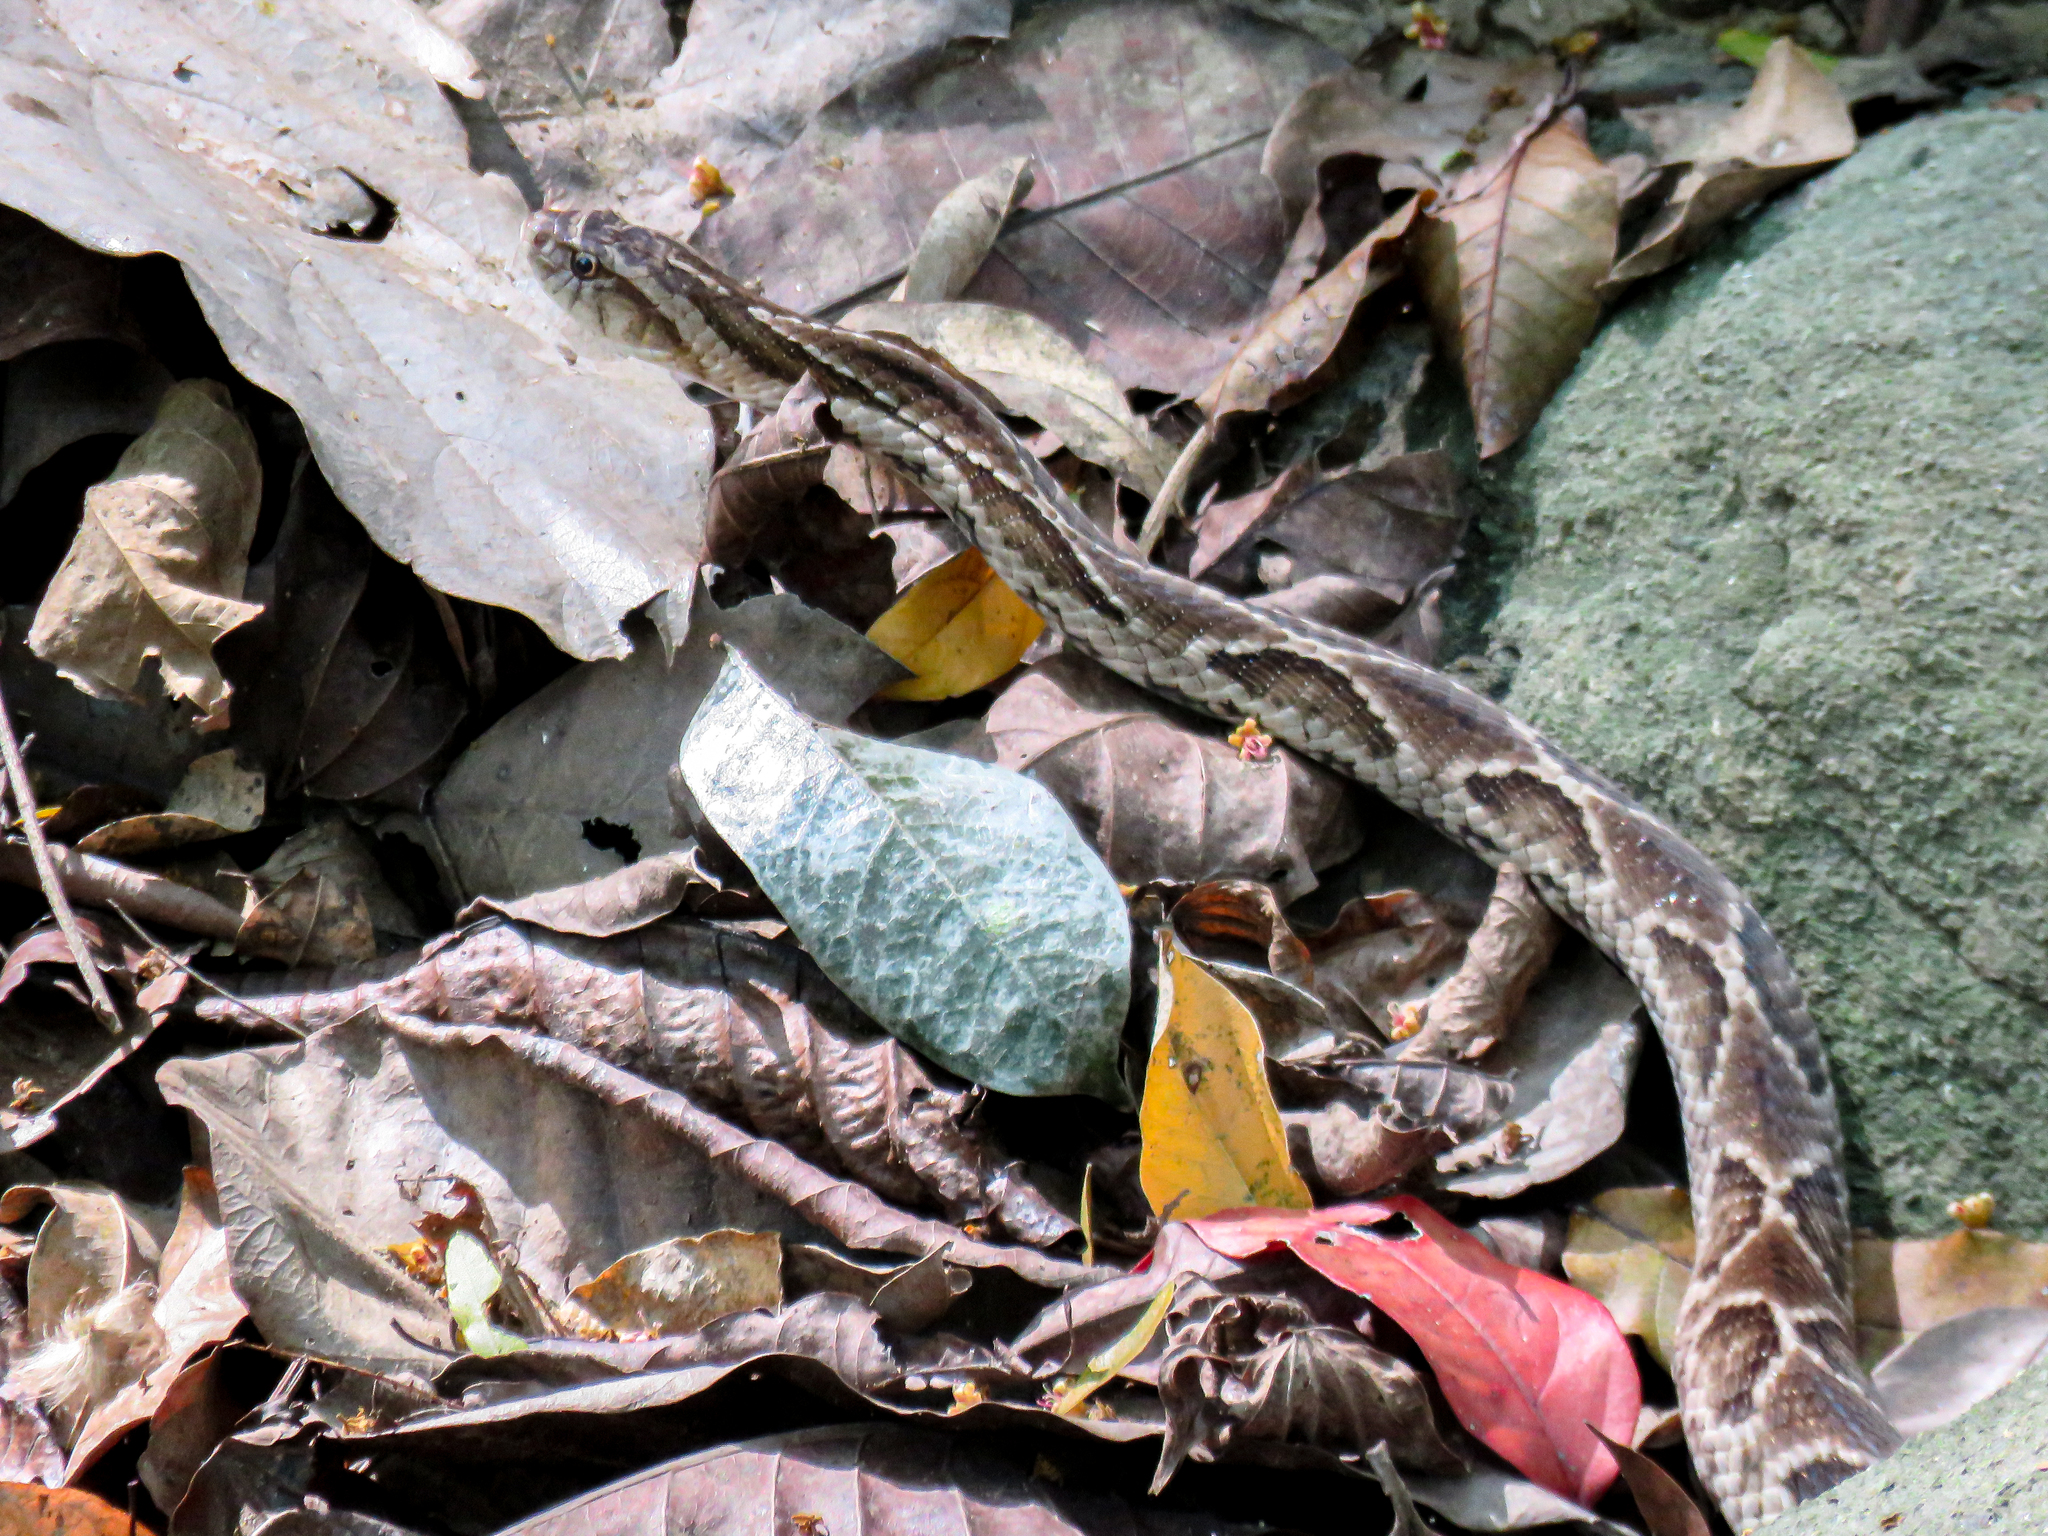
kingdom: Animalia
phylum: Chordata
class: Squamata
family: Colubridae
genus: Xenodon
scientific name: Xenodon rabdocephalus
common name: False fer-de-lance
